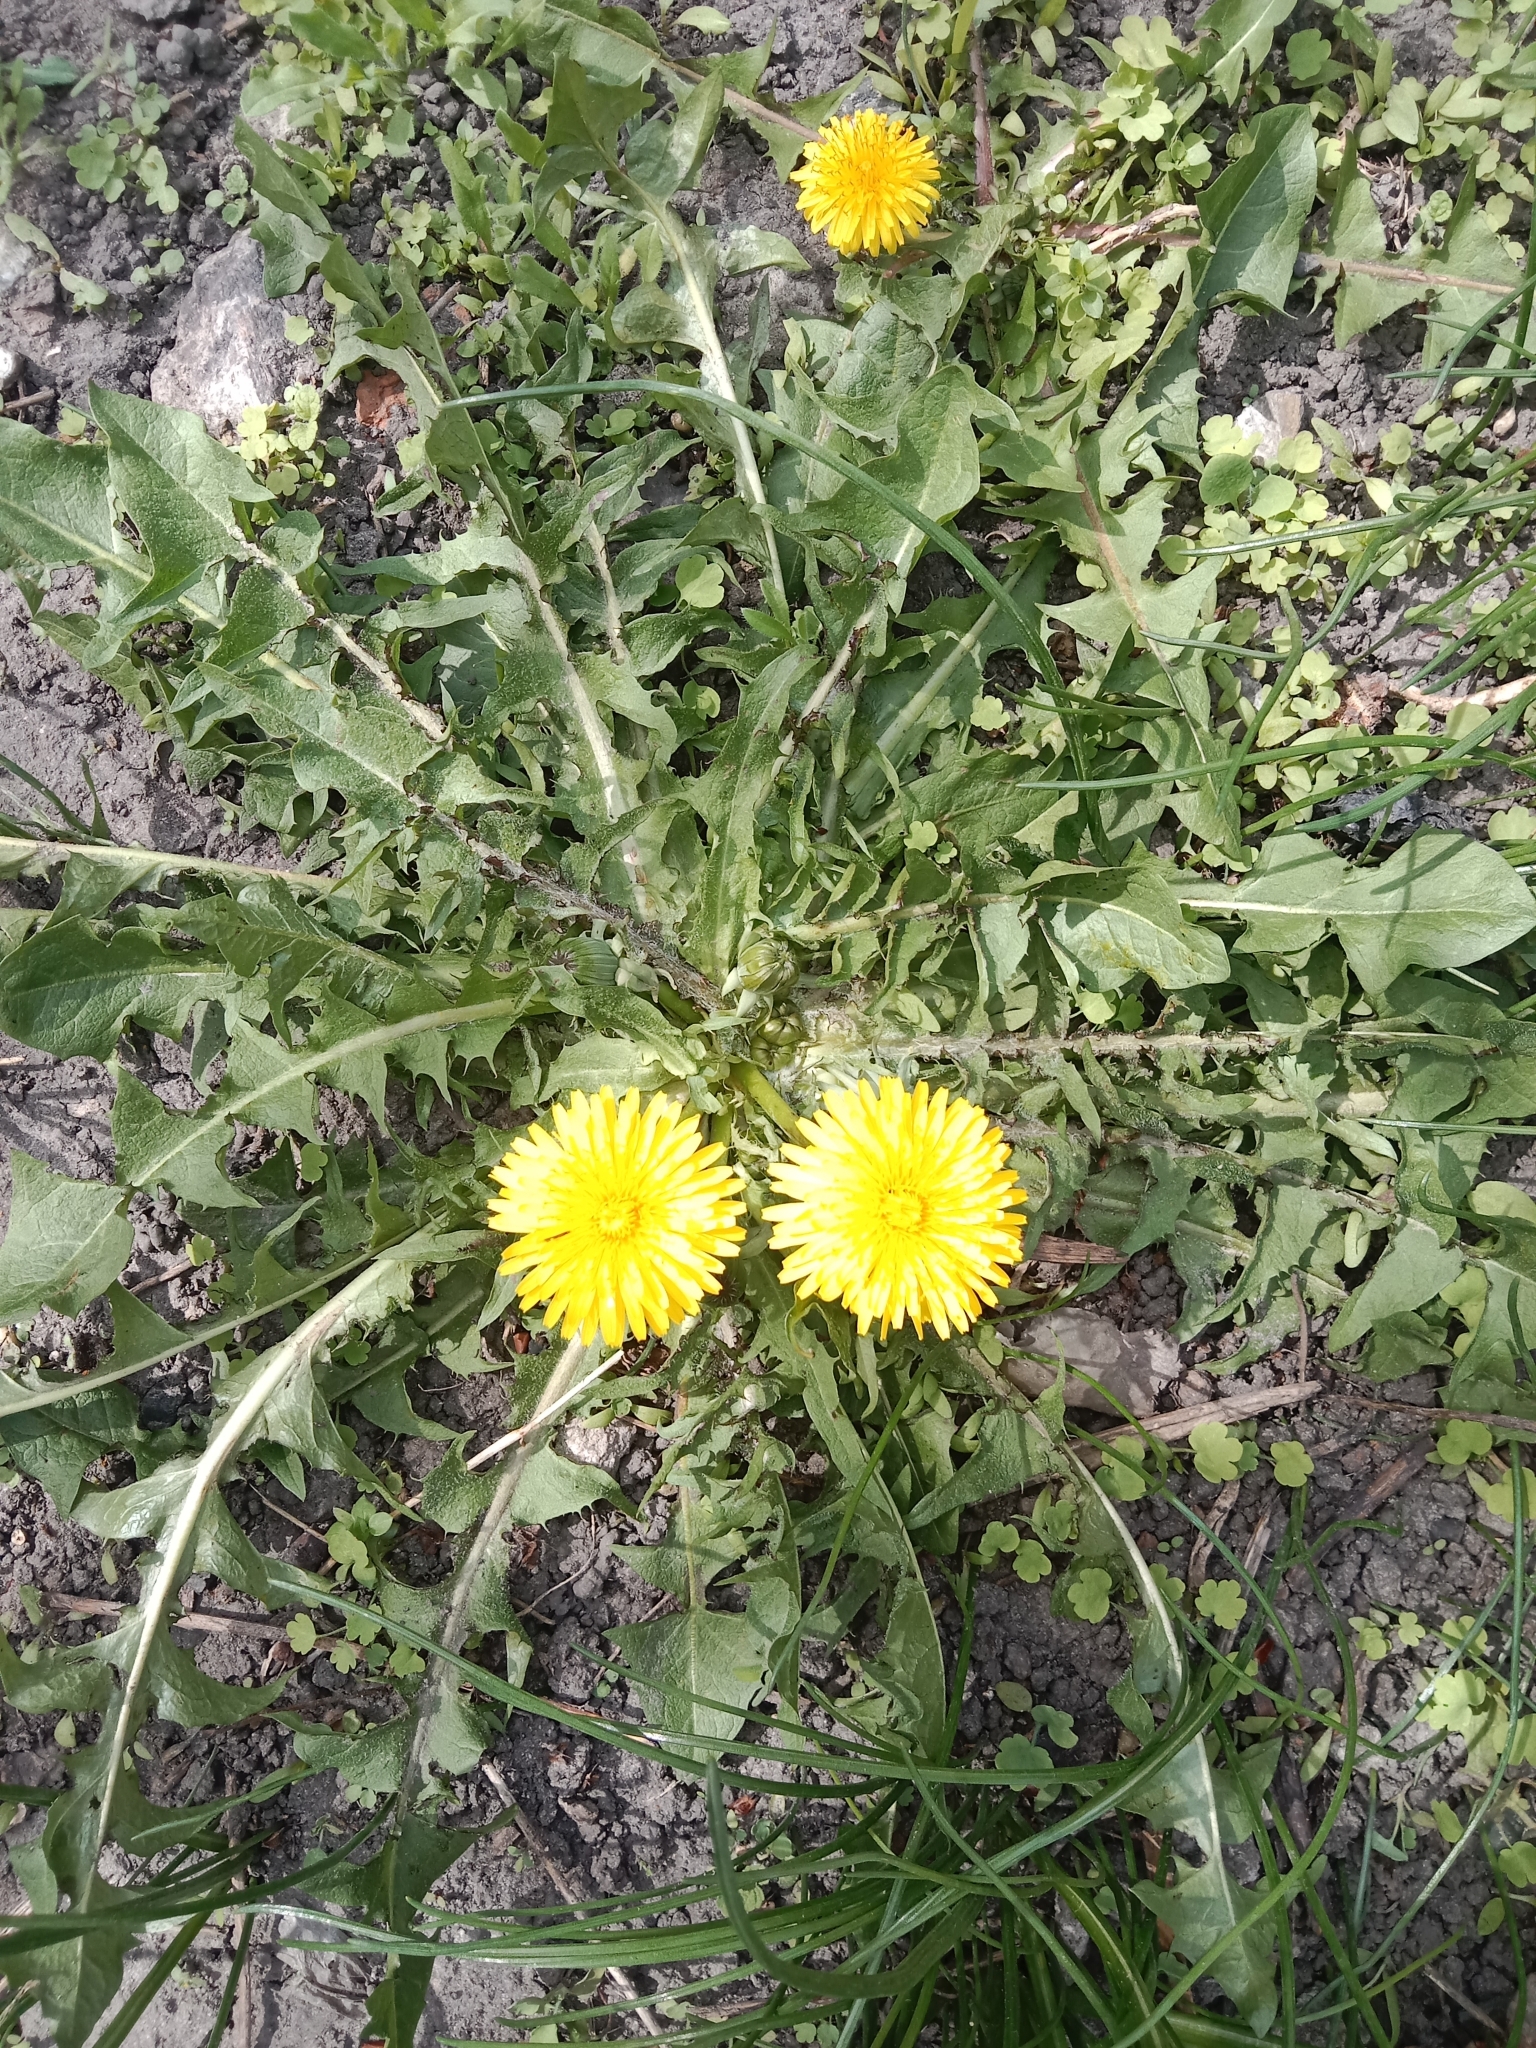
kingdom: Plantae
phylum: Tracheophyta
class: Magnoliopsida
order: Asterales
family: Asteraceae
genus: Taraxacum
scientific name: Taraxacum officinale
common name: Common dandelion
